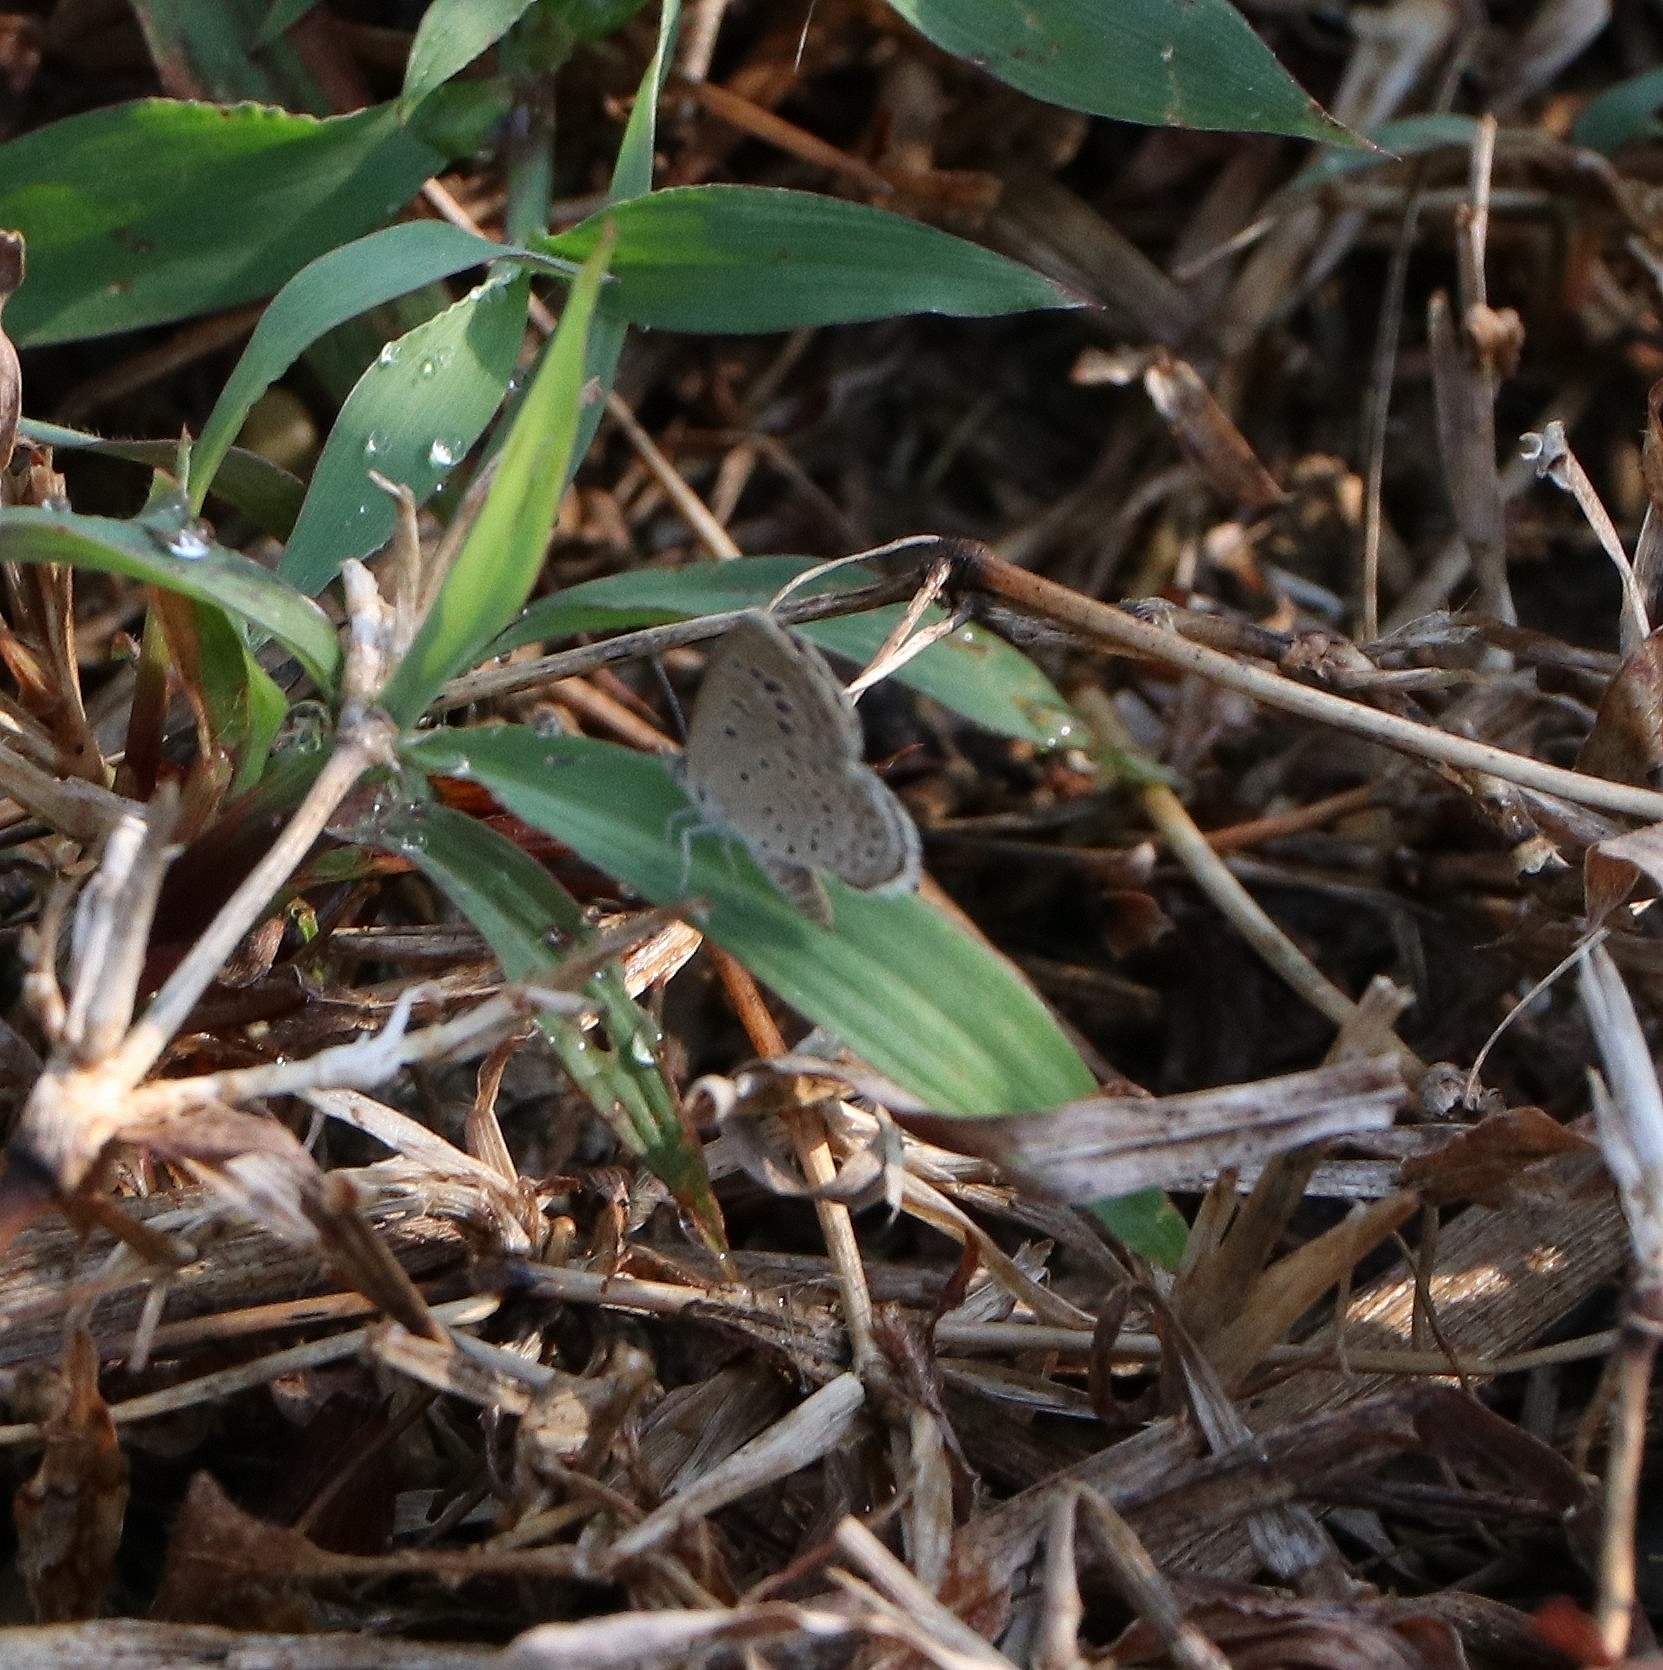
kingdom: Animalia
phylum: Arthropoda
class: Insecta
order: Lepidoptera
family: Lycaenidae
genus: Zizeeria
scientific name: Zizeeria karsandra
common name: Dark grass blue
